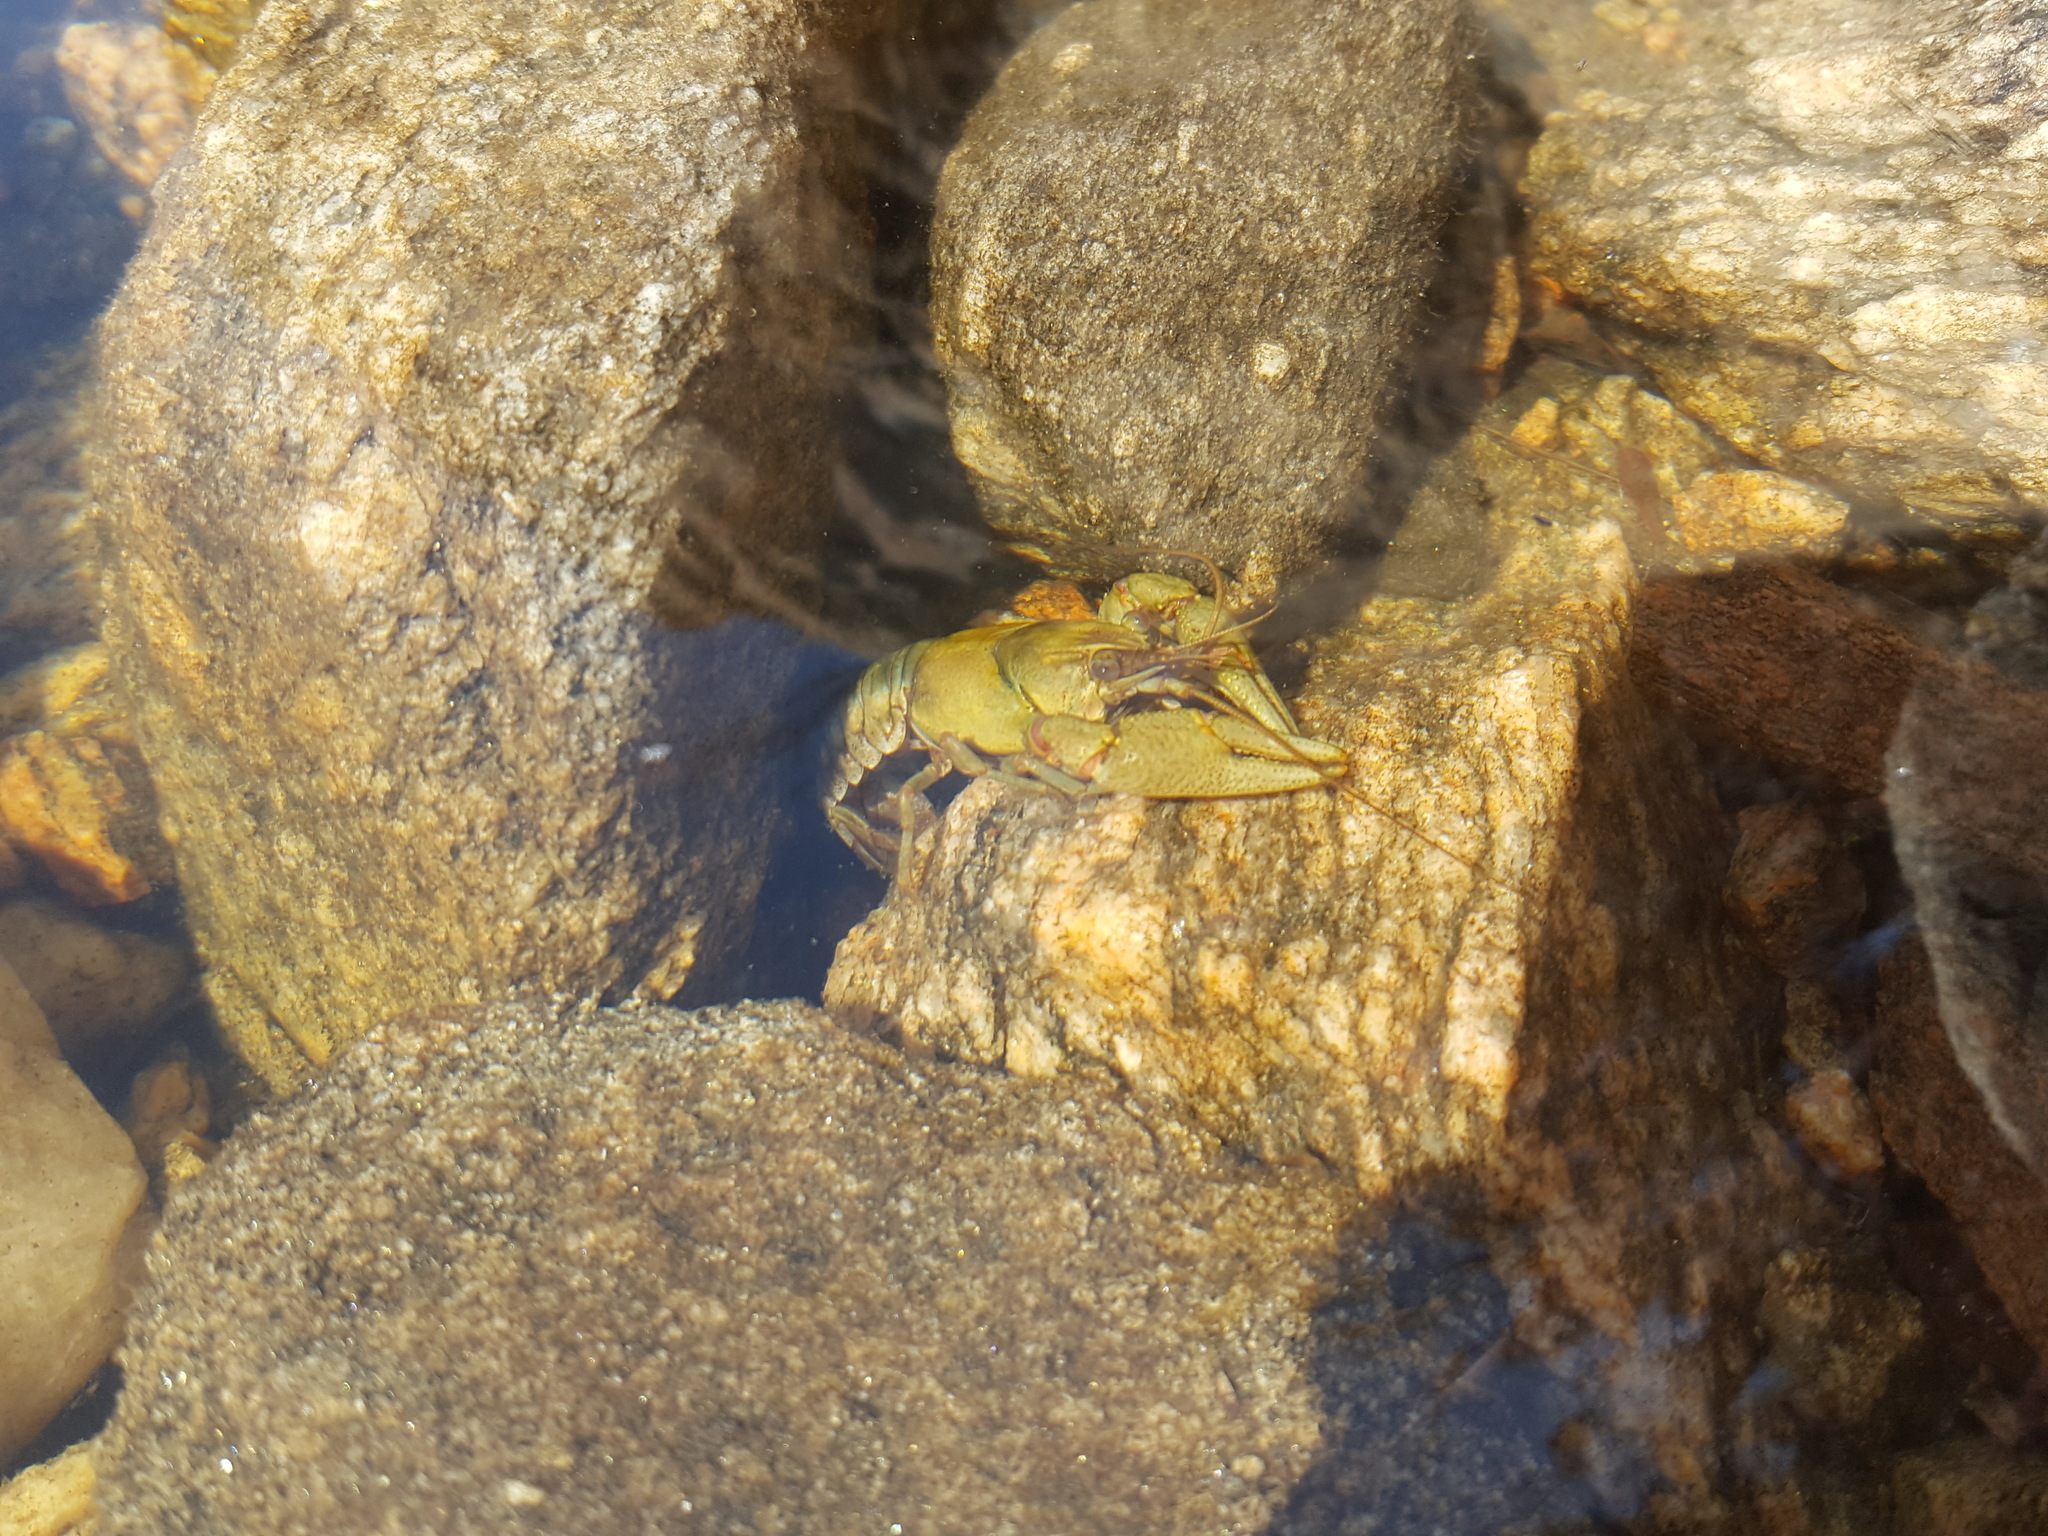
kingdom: Animalia
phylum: Arthropoda
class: Malacostraca
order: Decapoda
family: Cambaridae
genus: Faxonius
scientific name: Faxonius propinquus
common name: Northern clearwater crayfish
